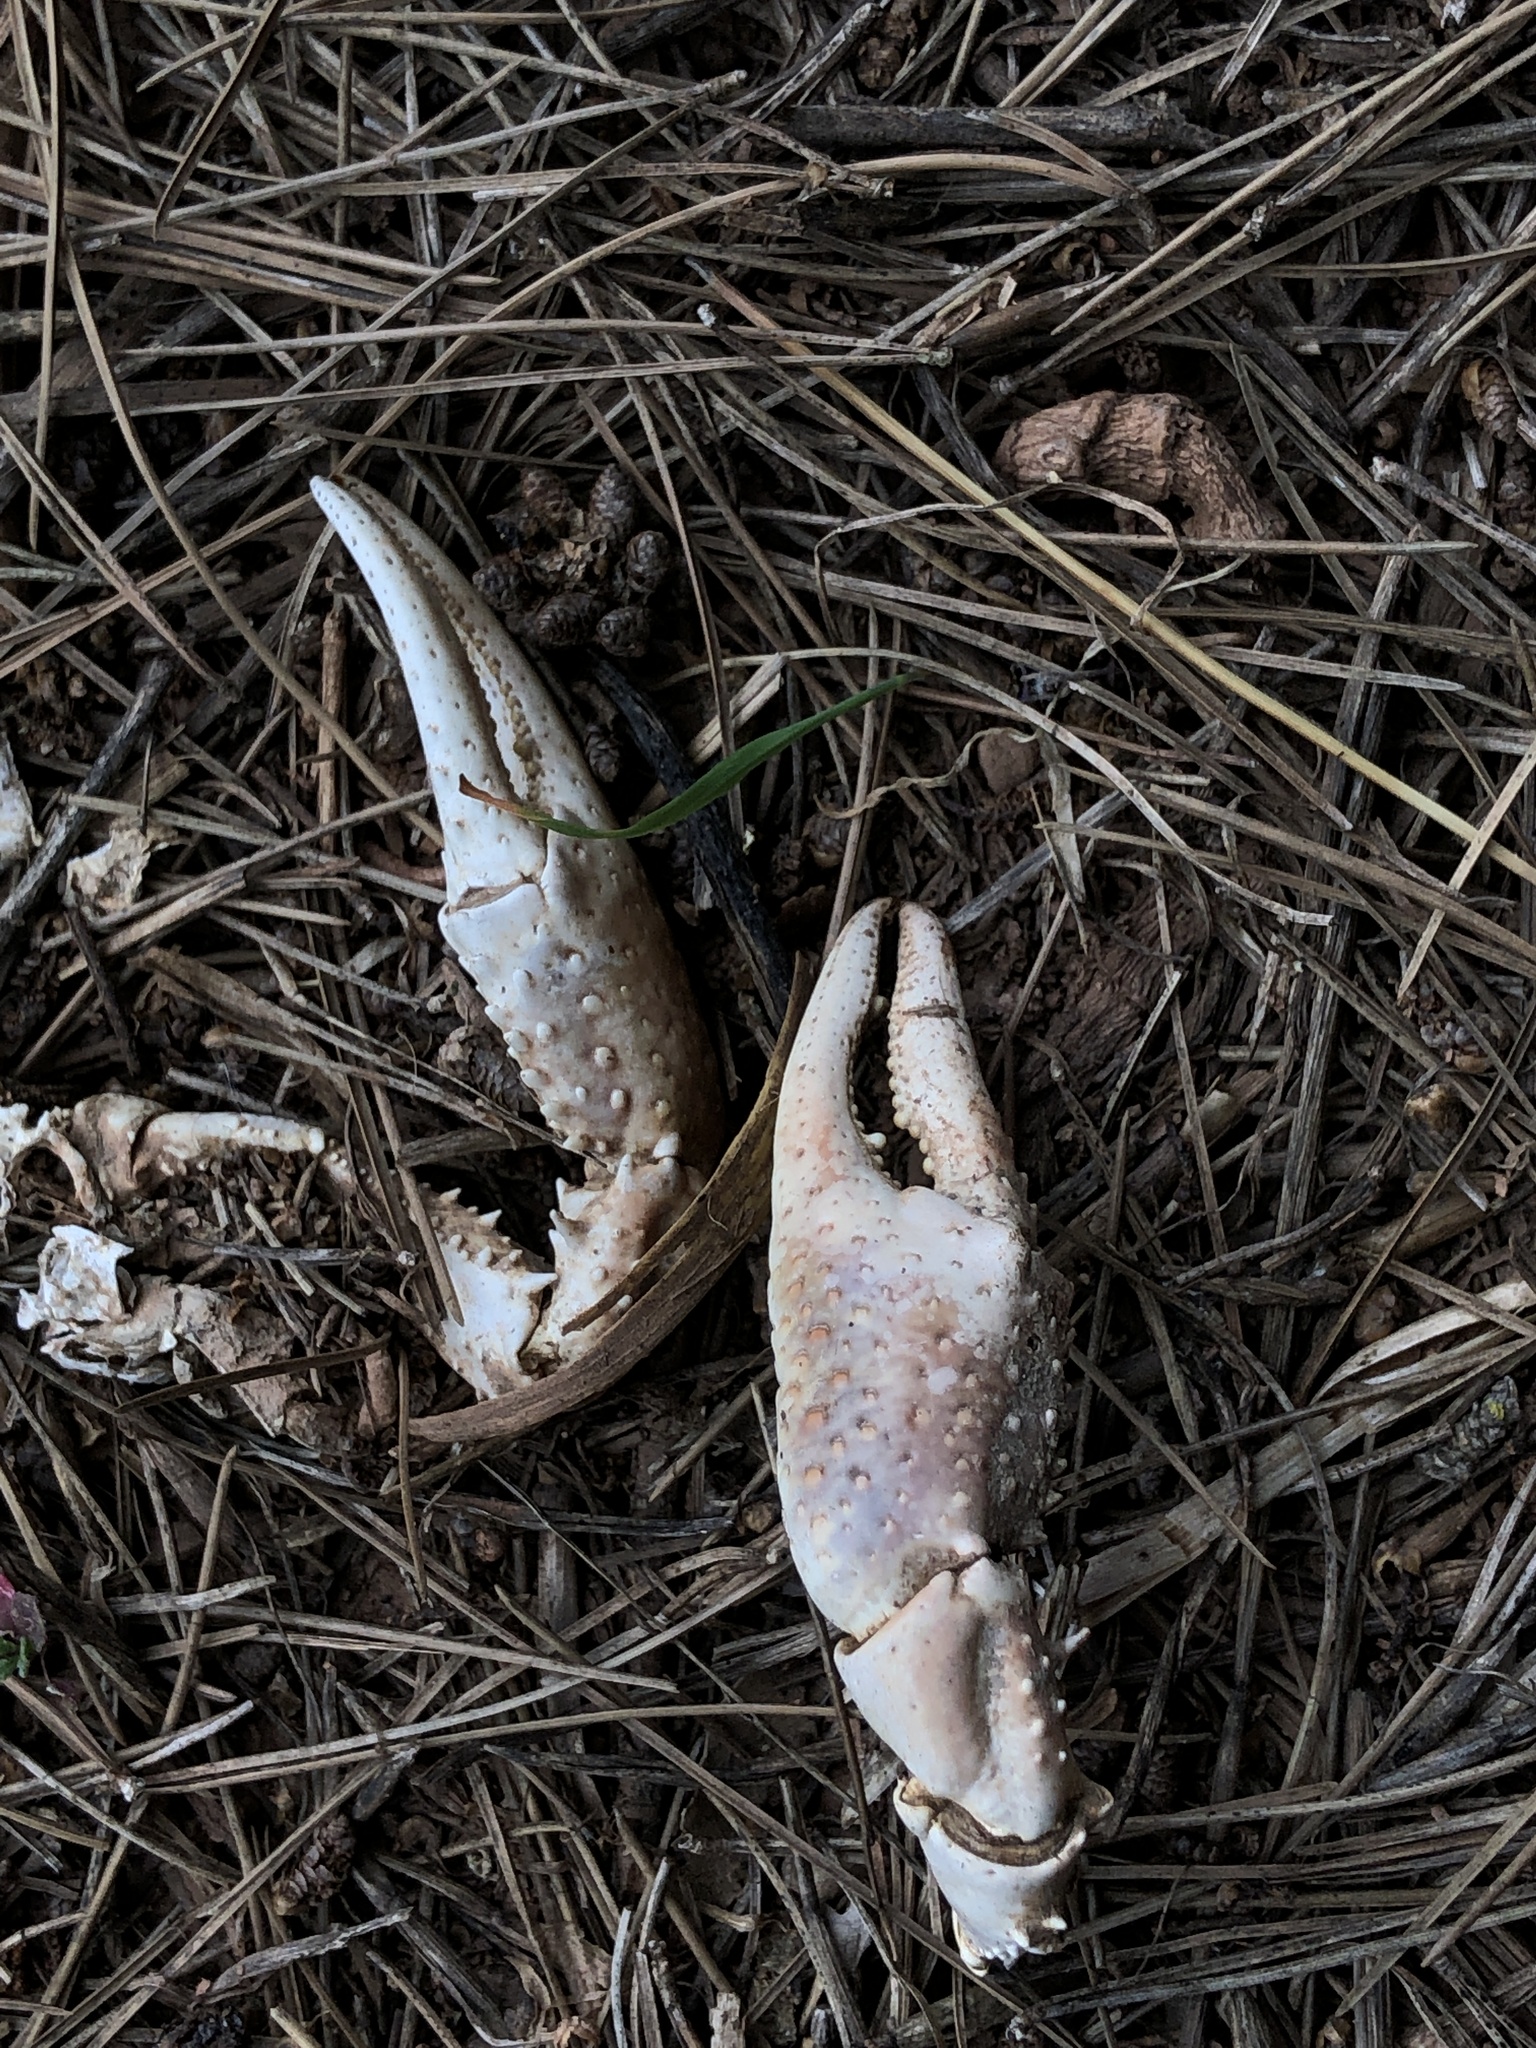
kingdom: Animalia
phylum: Arthropoda
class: Malacostraca
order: Decapoda
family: Cambaridae
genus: Procambarus
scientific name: Procambarus clarkii
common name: Red swamp crayfish
